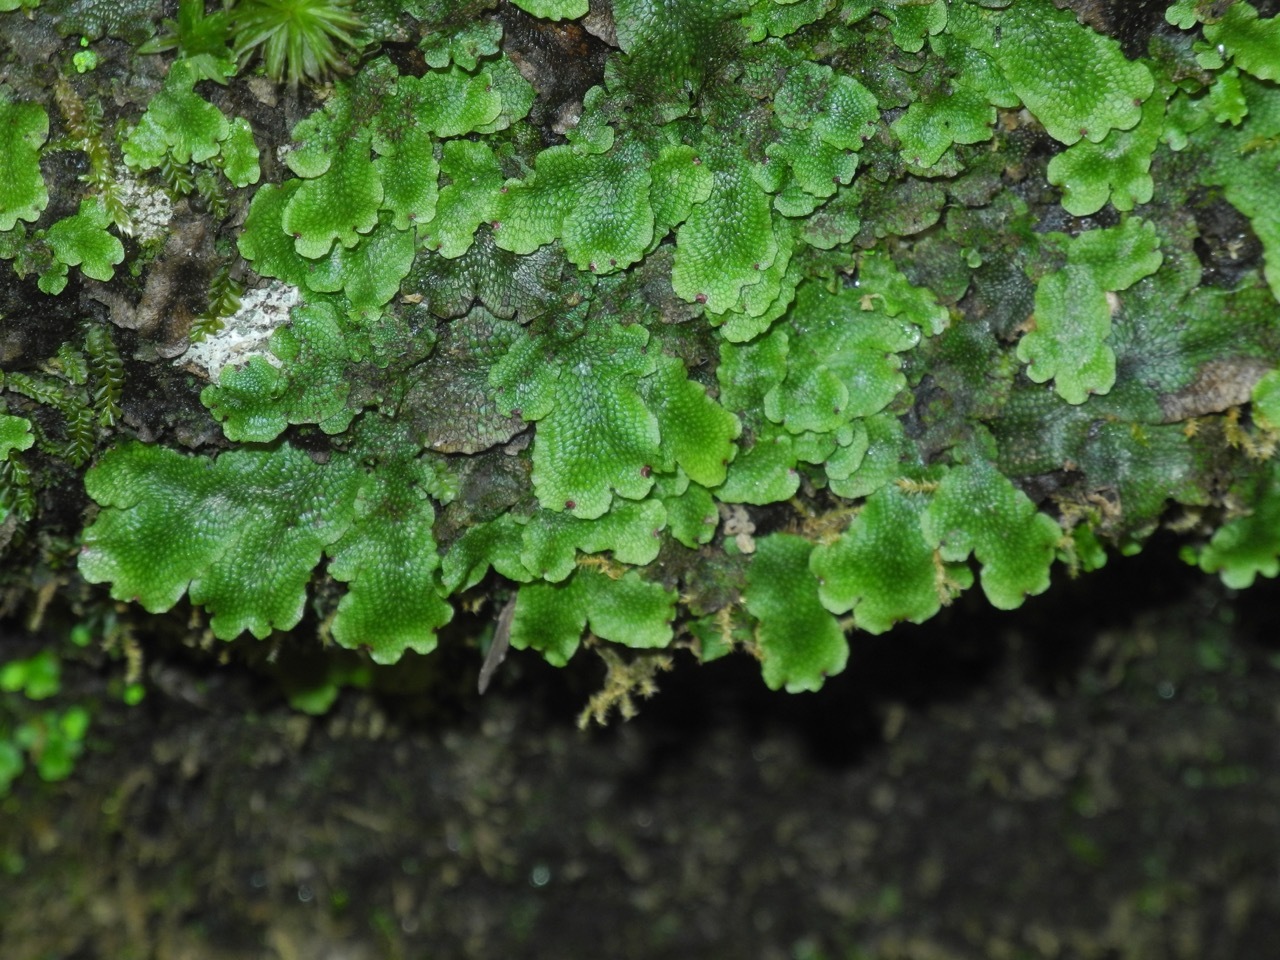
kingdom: Plantae
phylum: Marchantiophyta
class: Marchantiopsida
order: Marchantiales
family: Conocephalaceae
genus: Conocephalum
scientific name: Conocephalum salebrosum
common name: Cat-tongue liverwort
